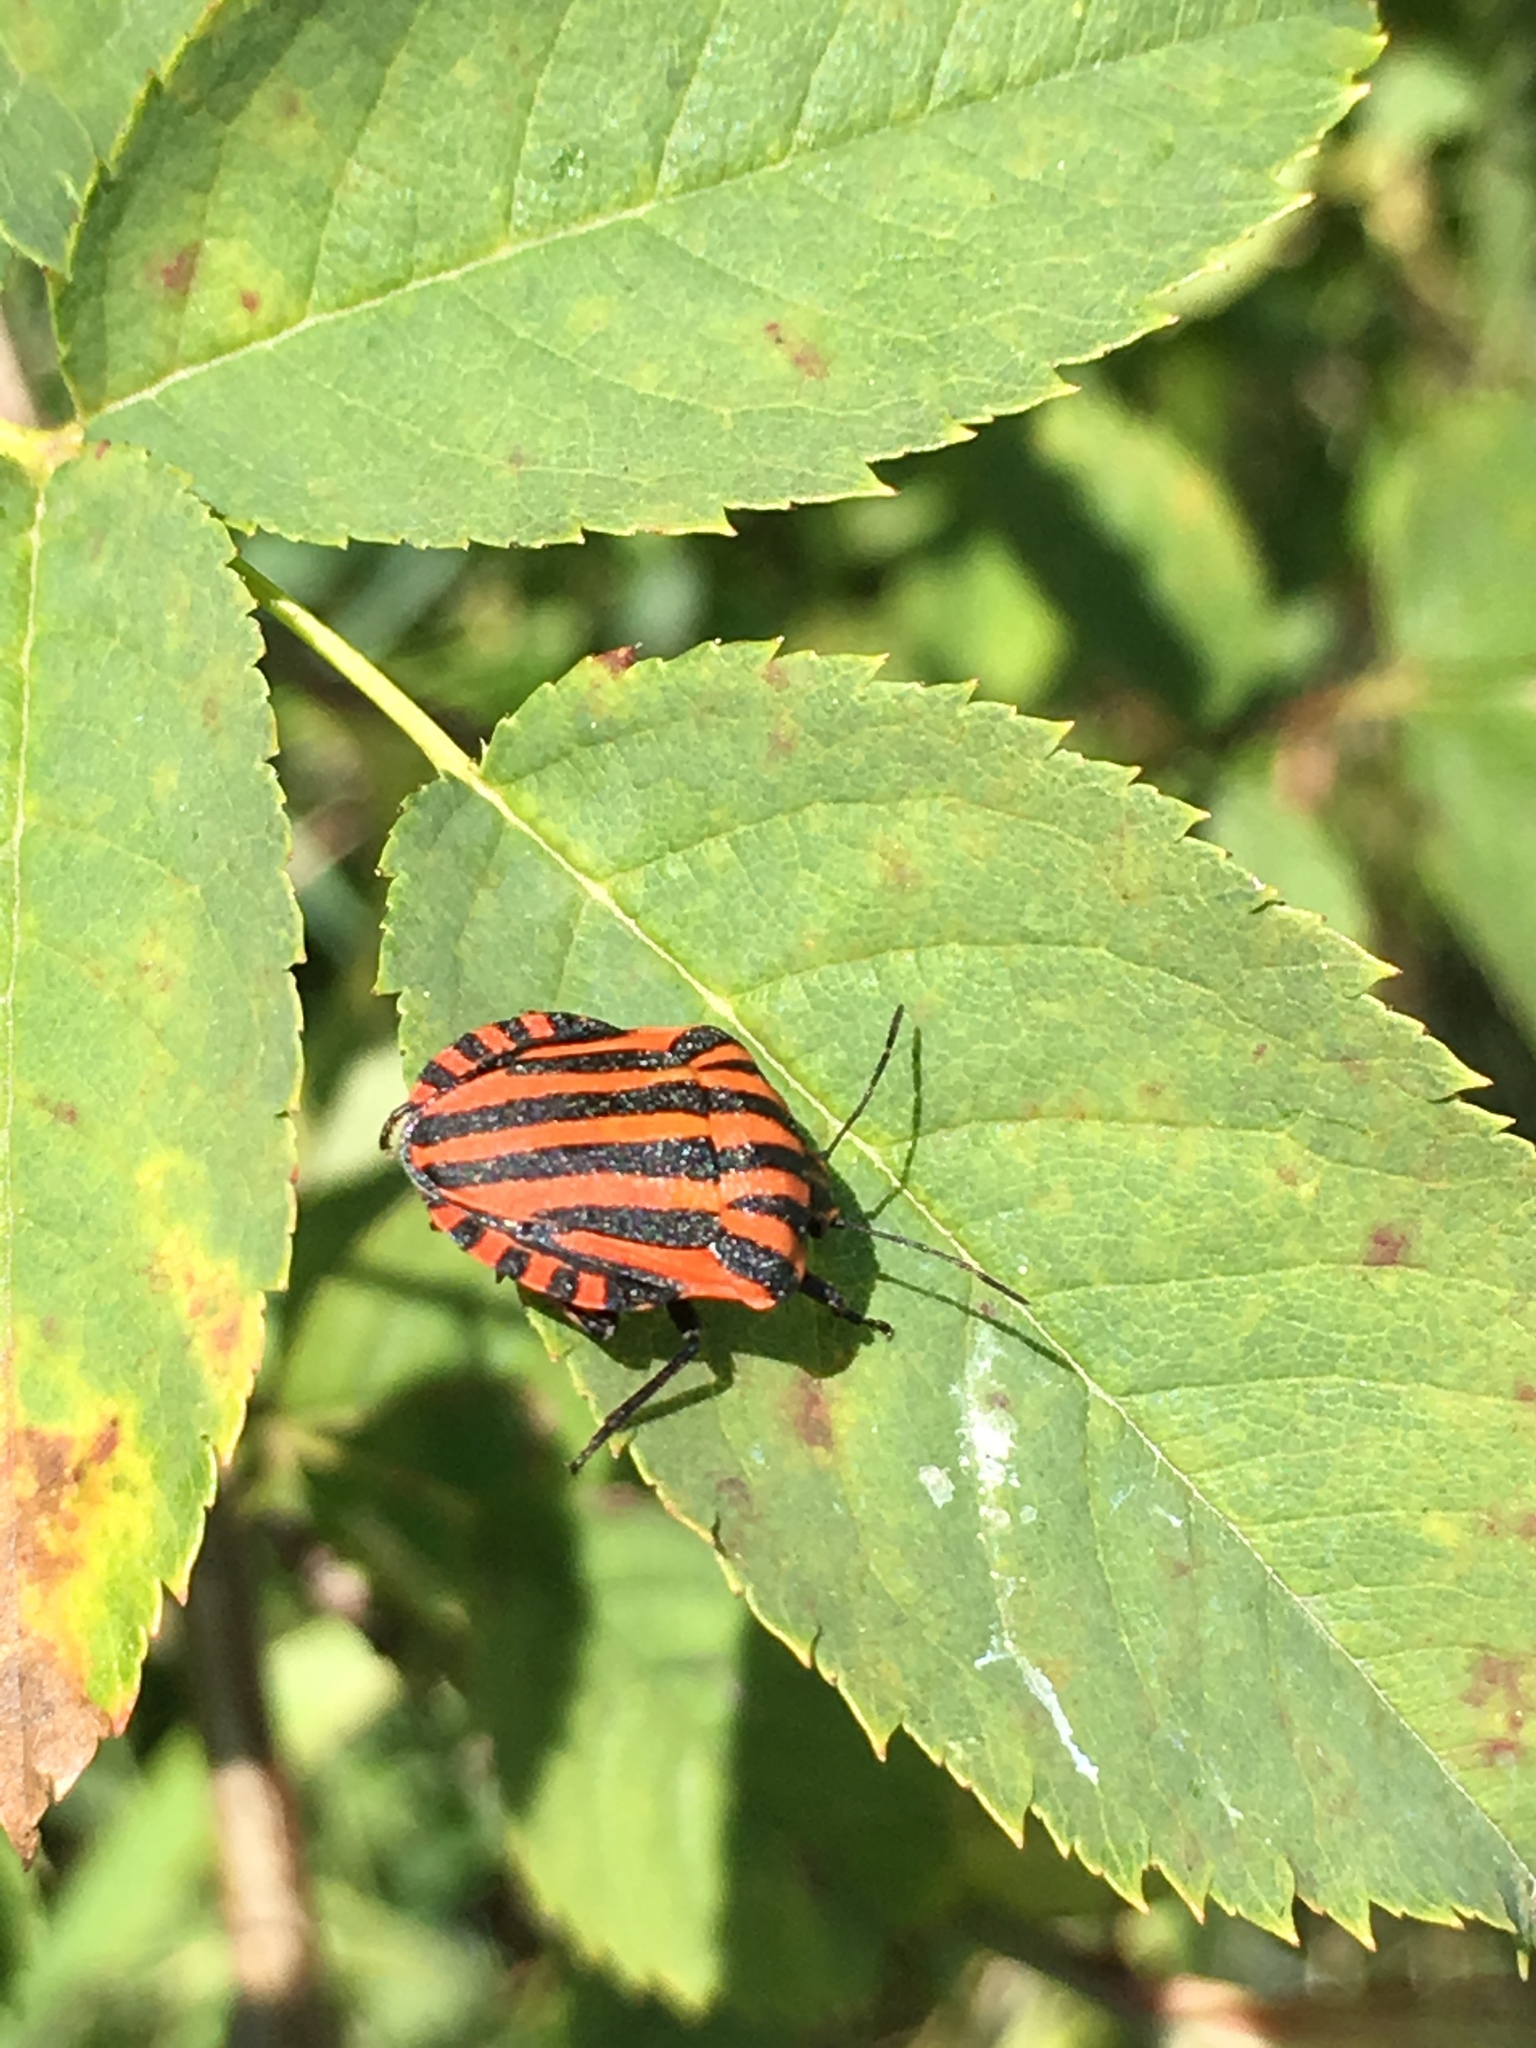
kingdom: Animalia
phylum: Arthropoda
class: Insecta
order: Hemiptera
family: Pentatomidae
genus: Graphosoma
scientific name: Graphosoma italicum
